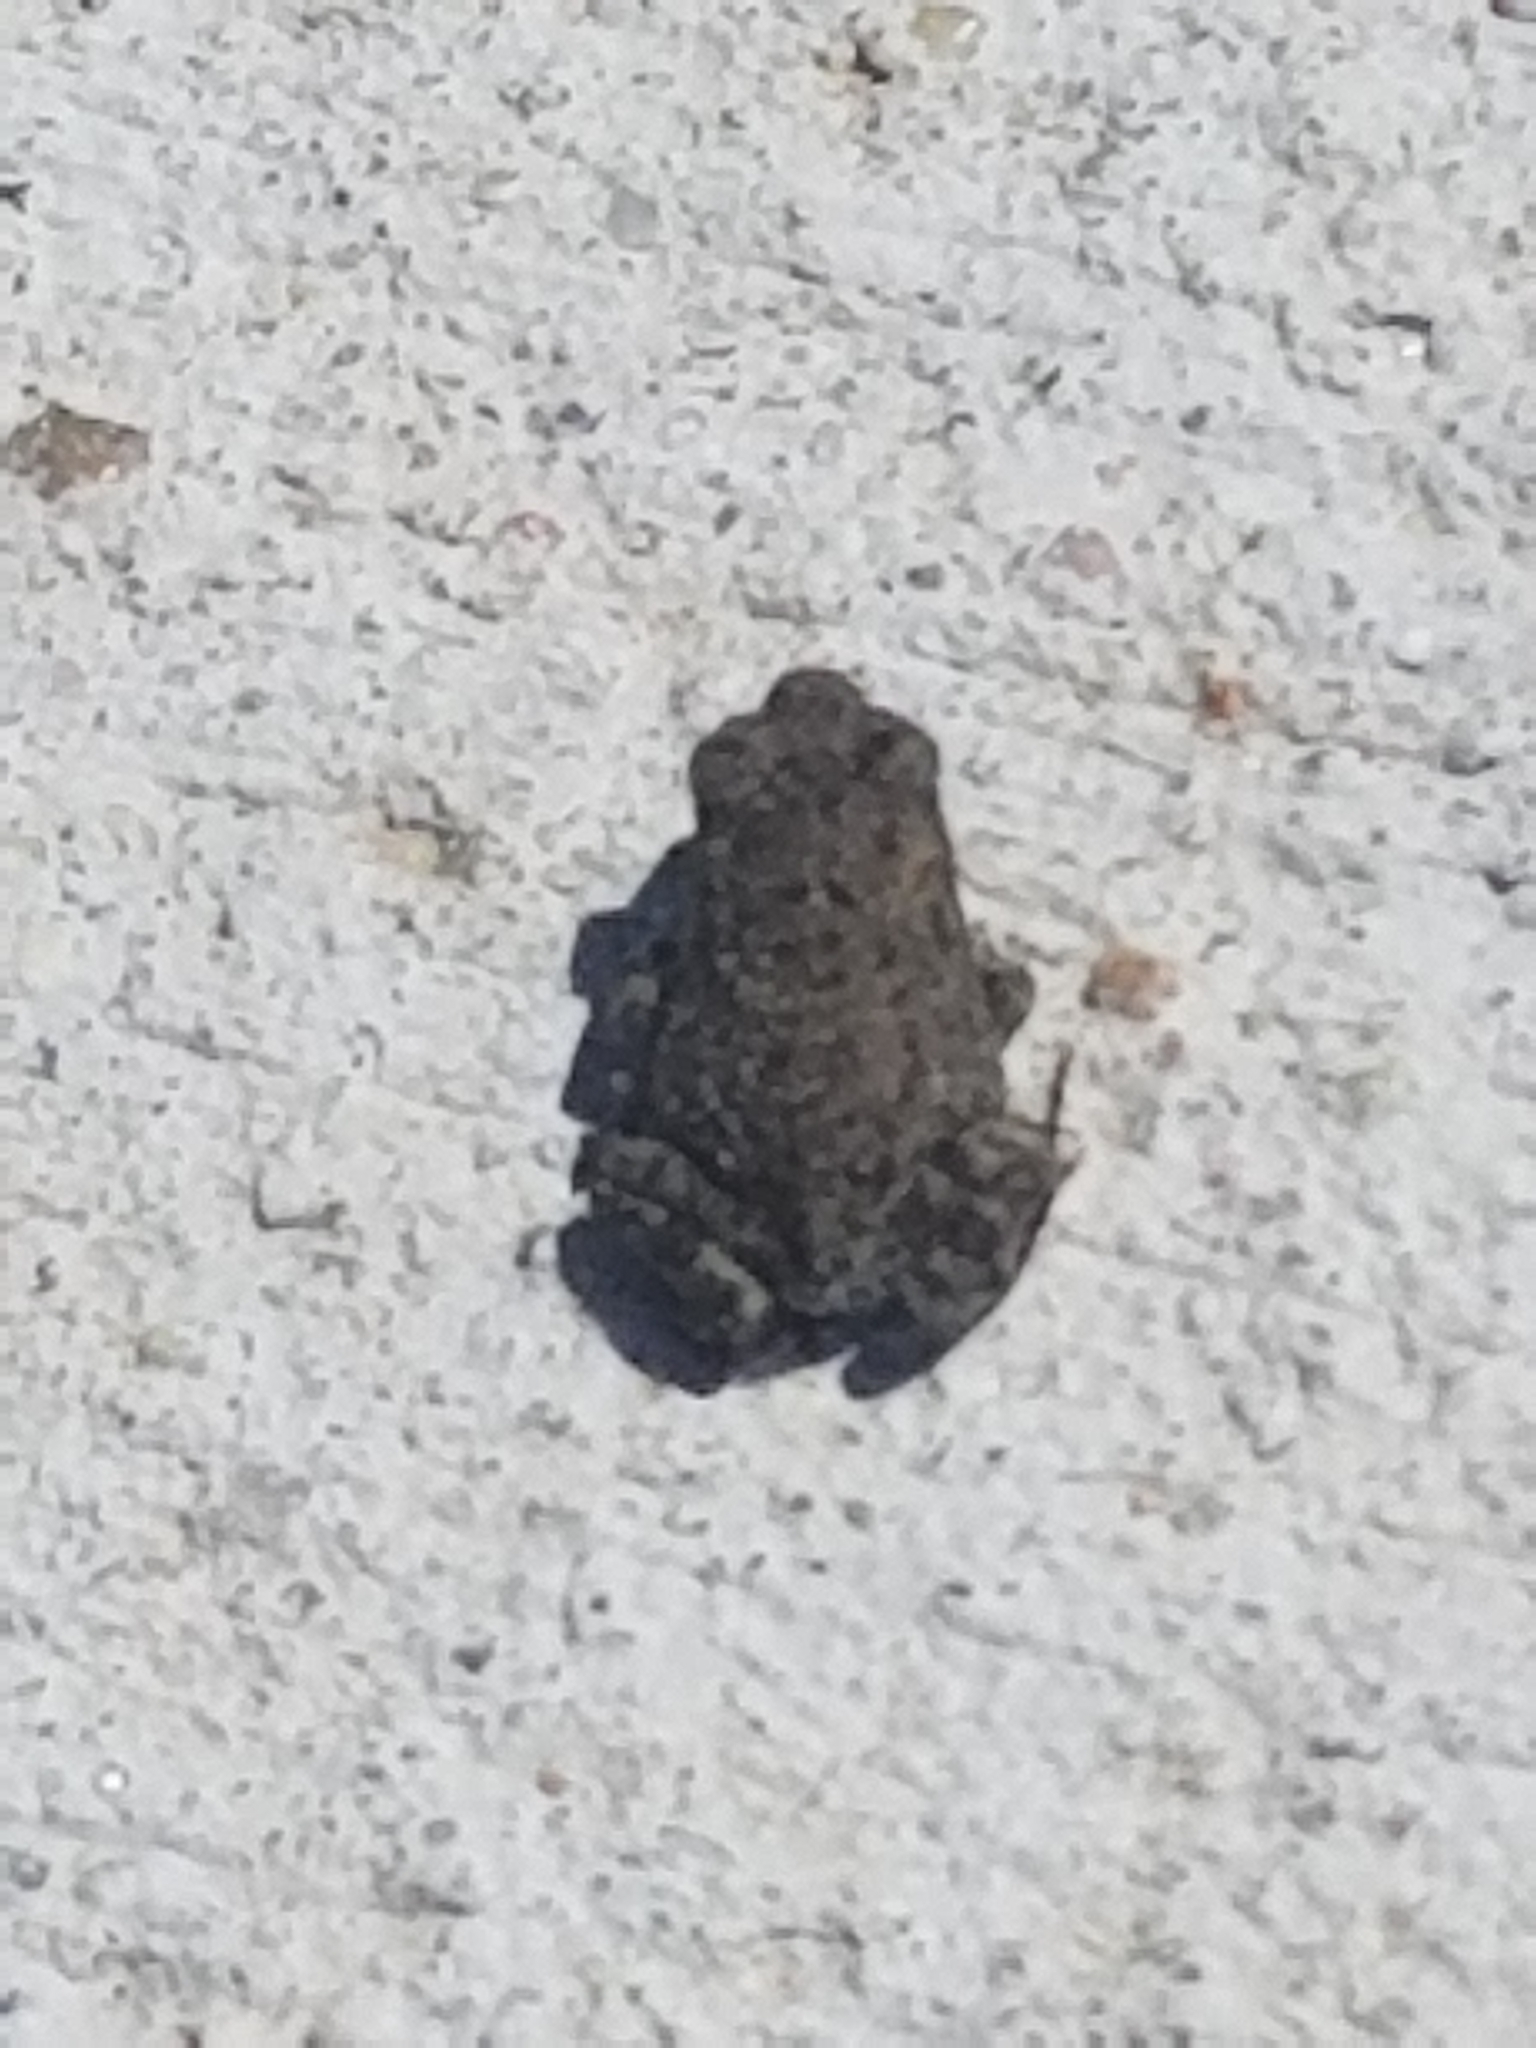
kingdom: Animalia
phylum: Chordata
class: Amphibia
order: Anura
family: Bufonidae
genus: Anaxyrus
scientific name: Anaxyrus woodhousii
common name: Woodhouse's toad
